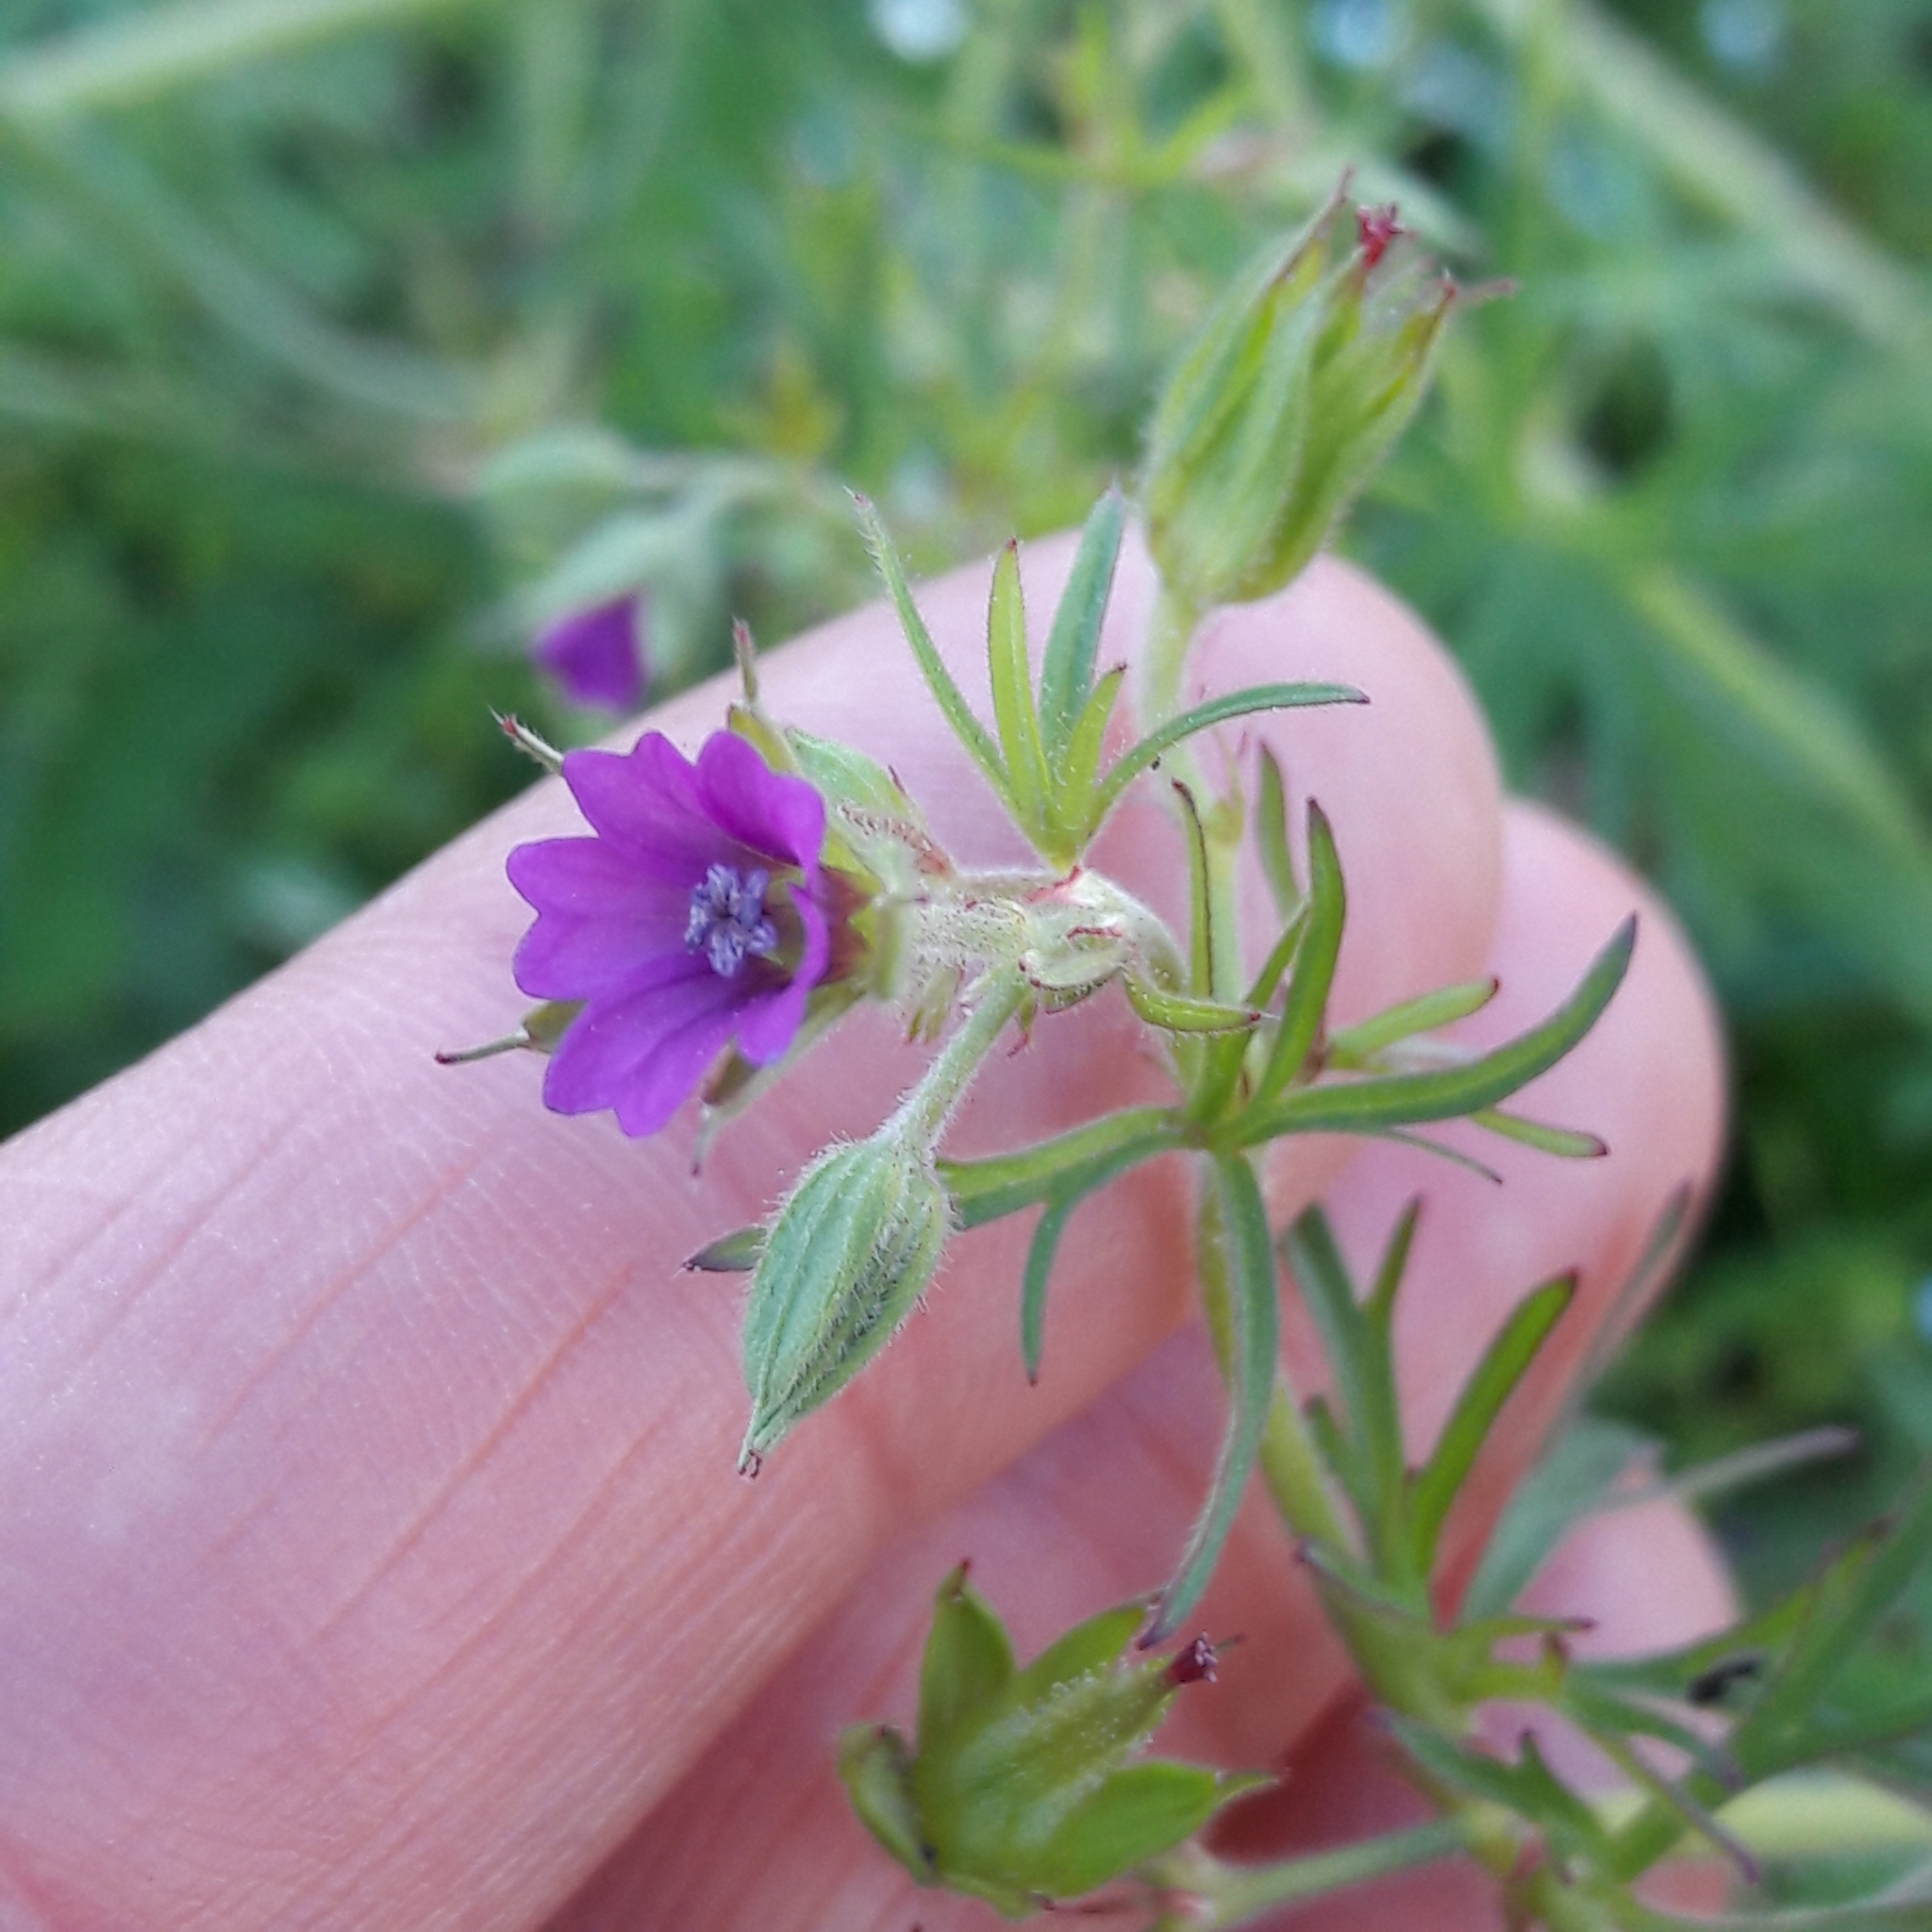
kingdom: Plantae
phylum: Tracheophyta
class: Magnoliopsida
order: Geraniales
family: Geraniaceae
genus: Geranium
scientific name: Geranium dissectum
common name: Cut-leaved crane's-bill
